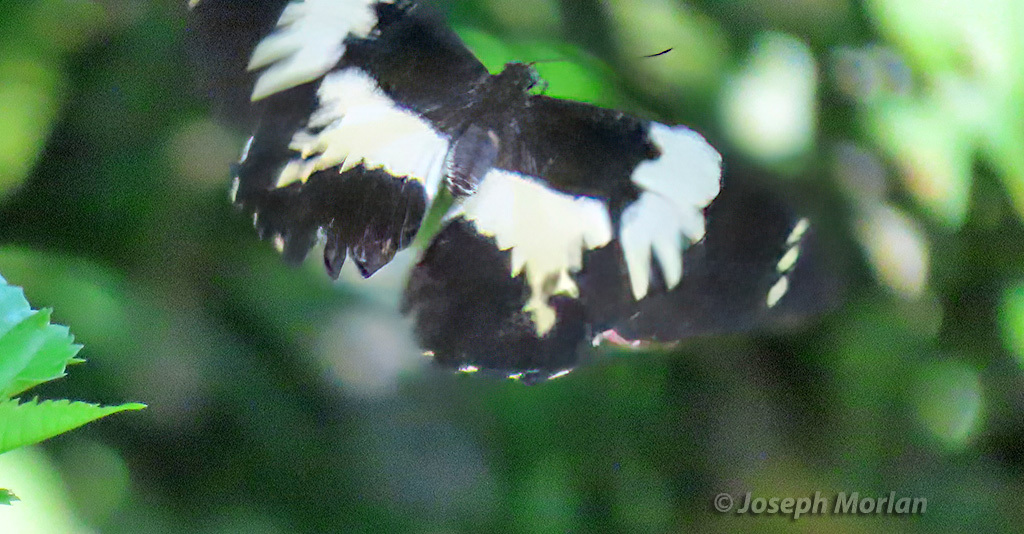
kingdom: Animalia
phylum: Arthropoda
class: Insecta
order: Lepidoptera
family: Papilionidae
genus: Papilio
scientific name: Papilio euchenor
